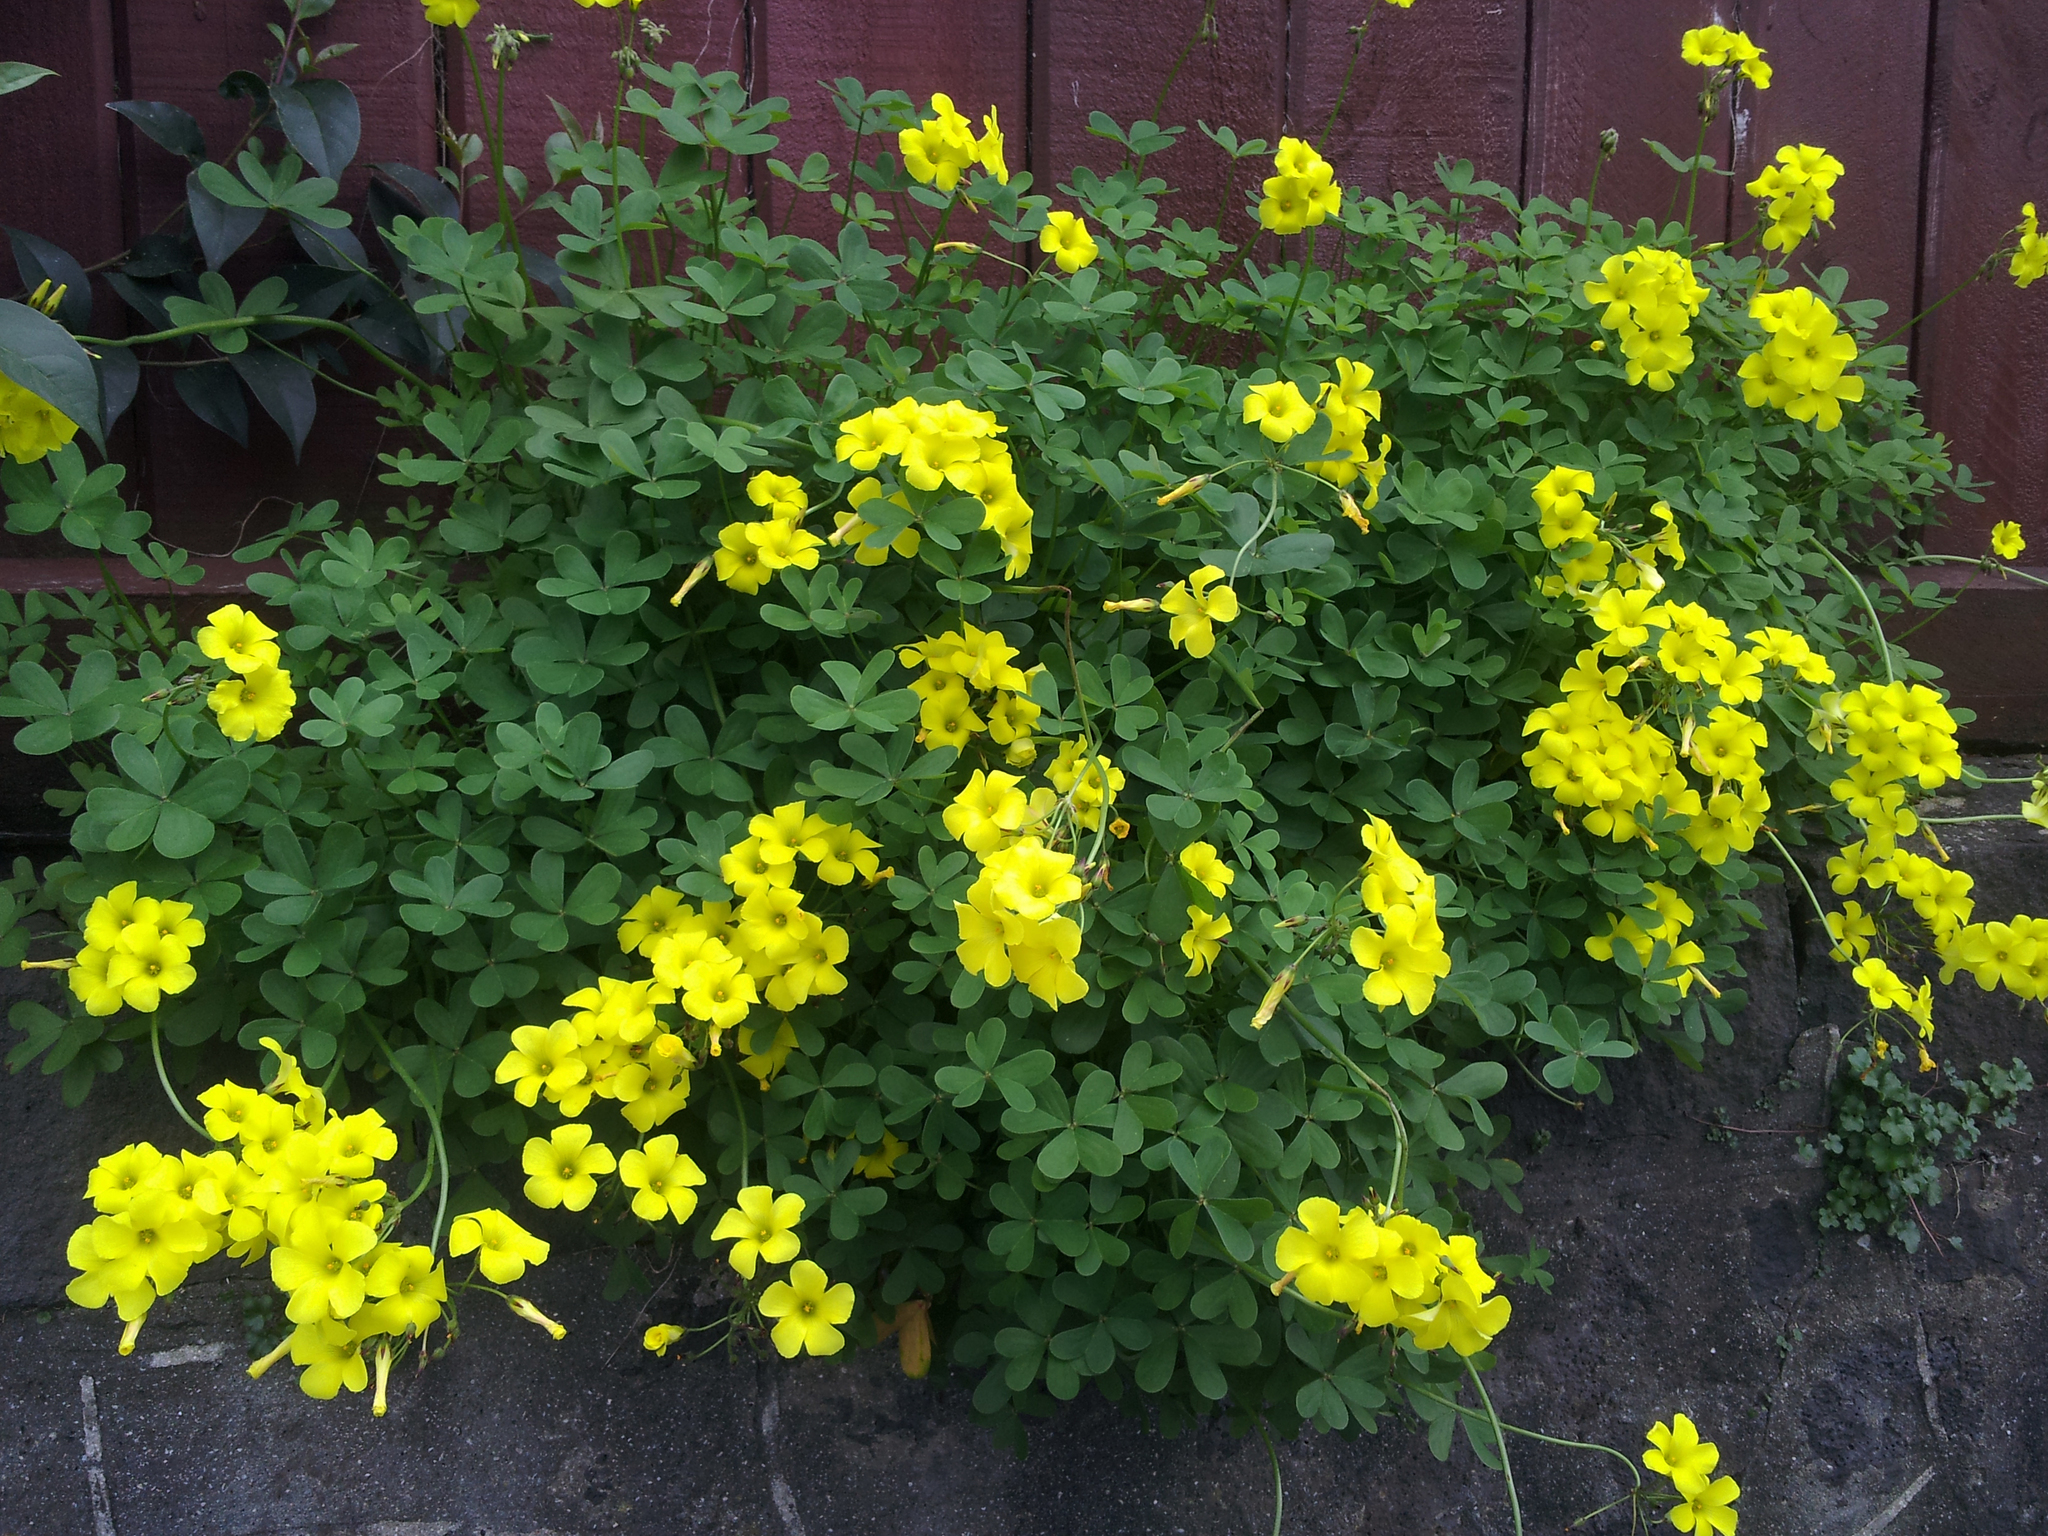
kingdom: Plantae
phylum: Tracheophyta
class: Magnoliopsida
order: Oxalidales
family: Oxalidaceae
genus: Oxalis
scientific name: Oxalis pes-caprae
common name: Bermuda-buttercup
